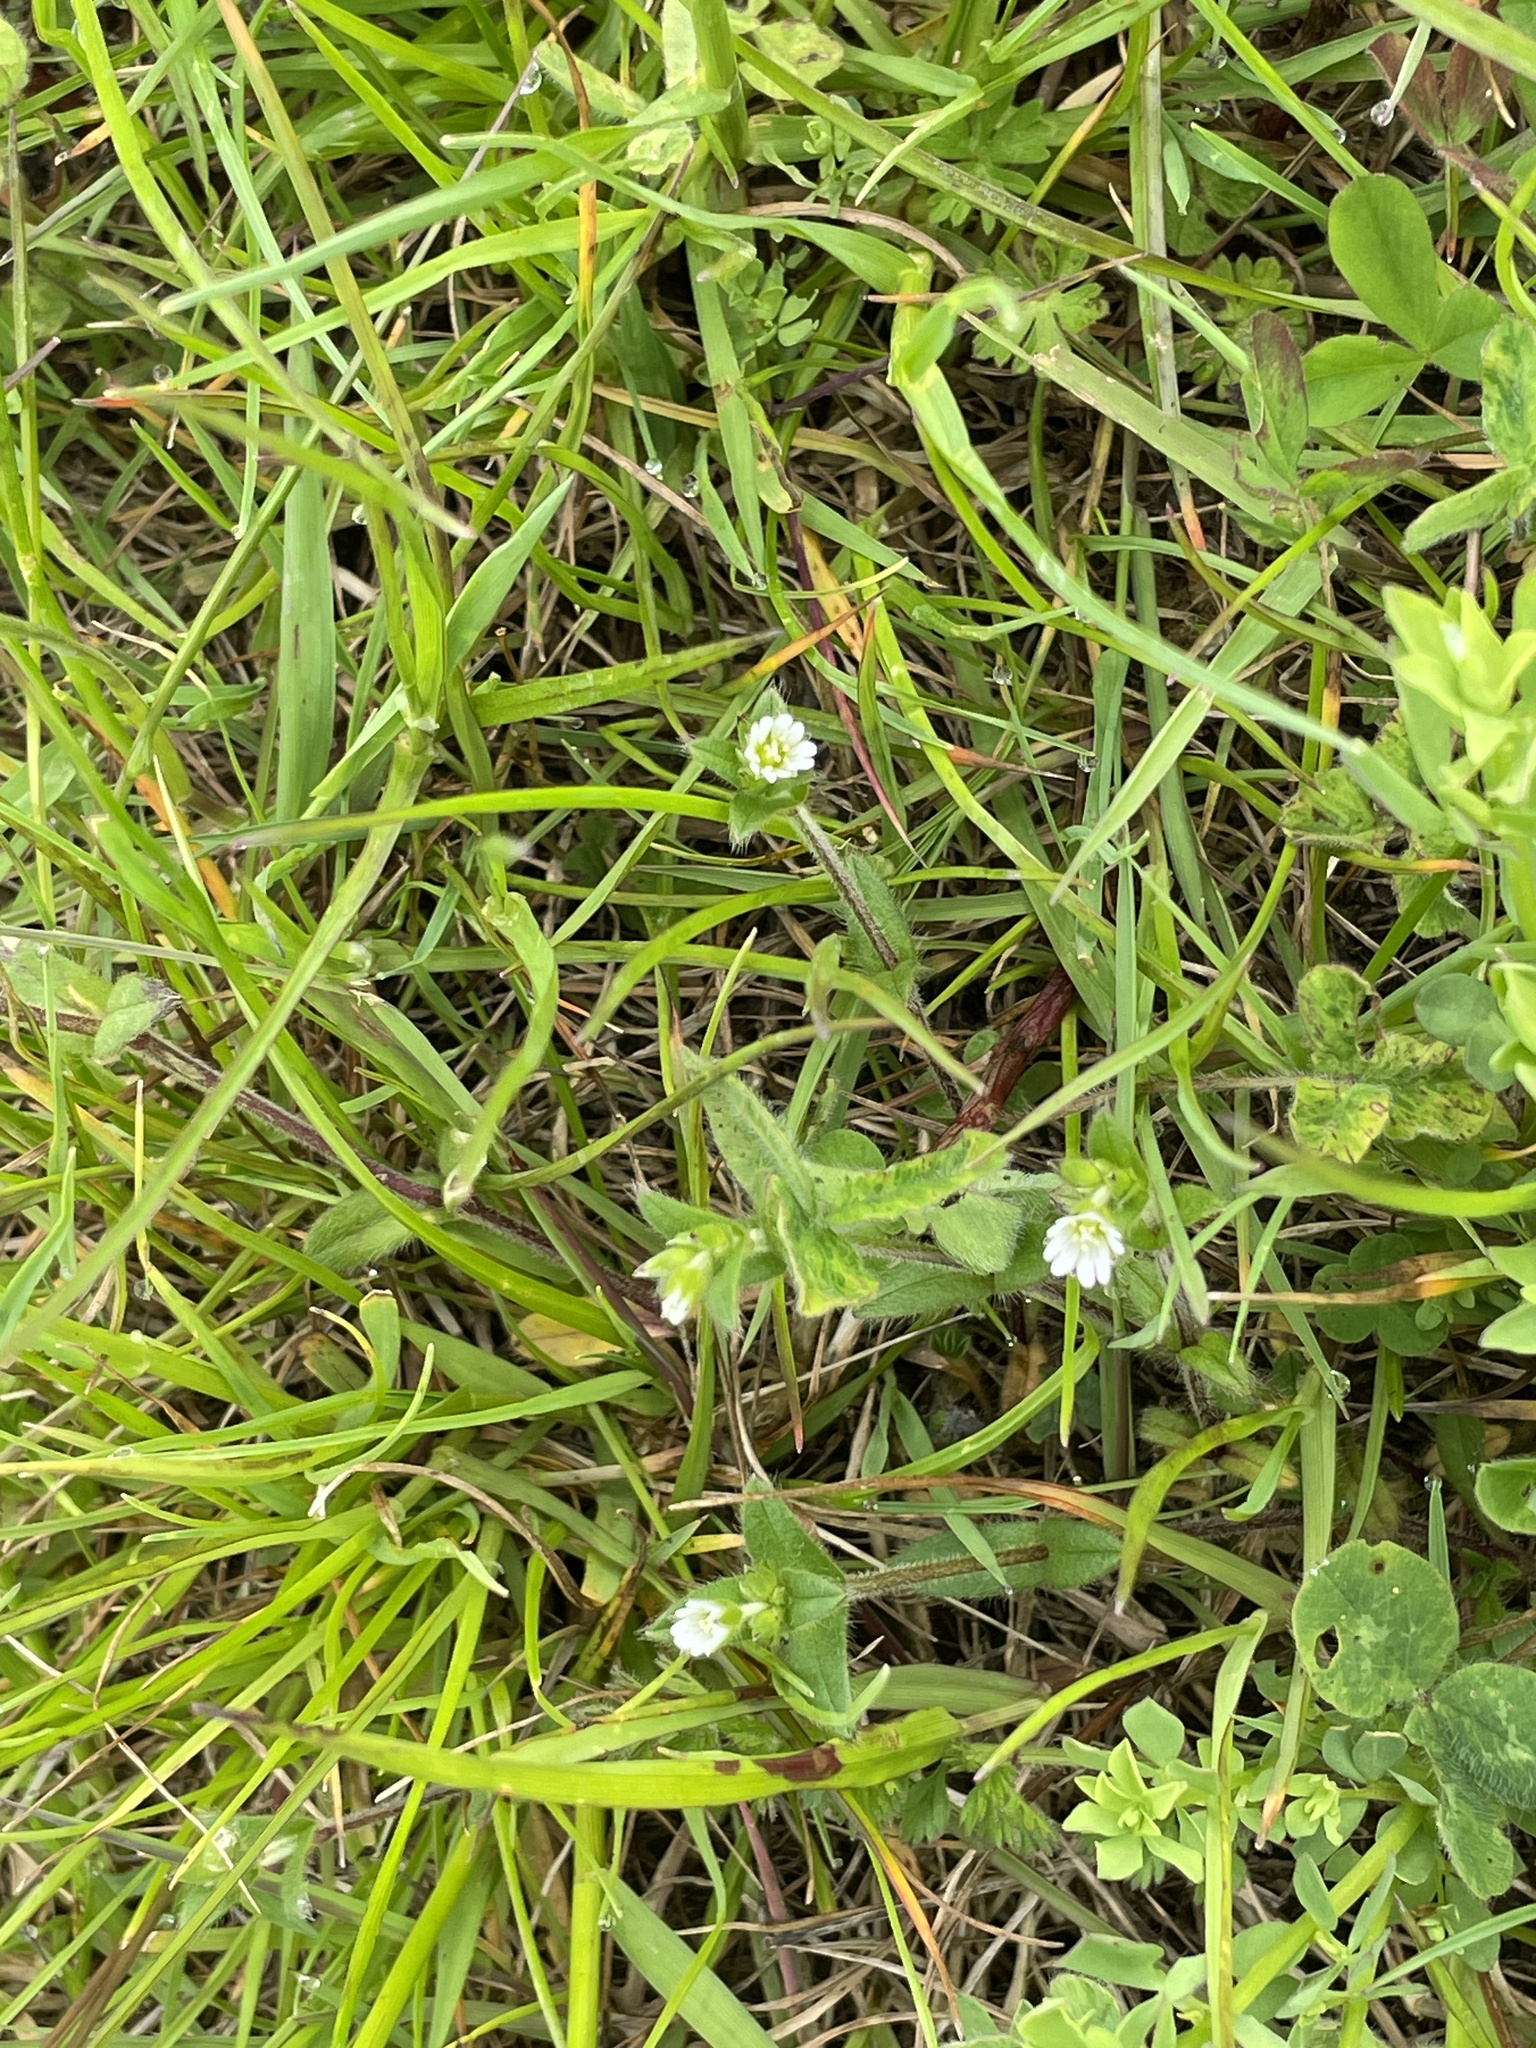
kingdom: Plantae
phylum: Tracheophyta
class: Magnoliopsida
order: Caryophyllales
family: Caryophyllaceae
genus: Cerastium
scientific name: Cerastium fontanum
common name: Common mouse-ear
